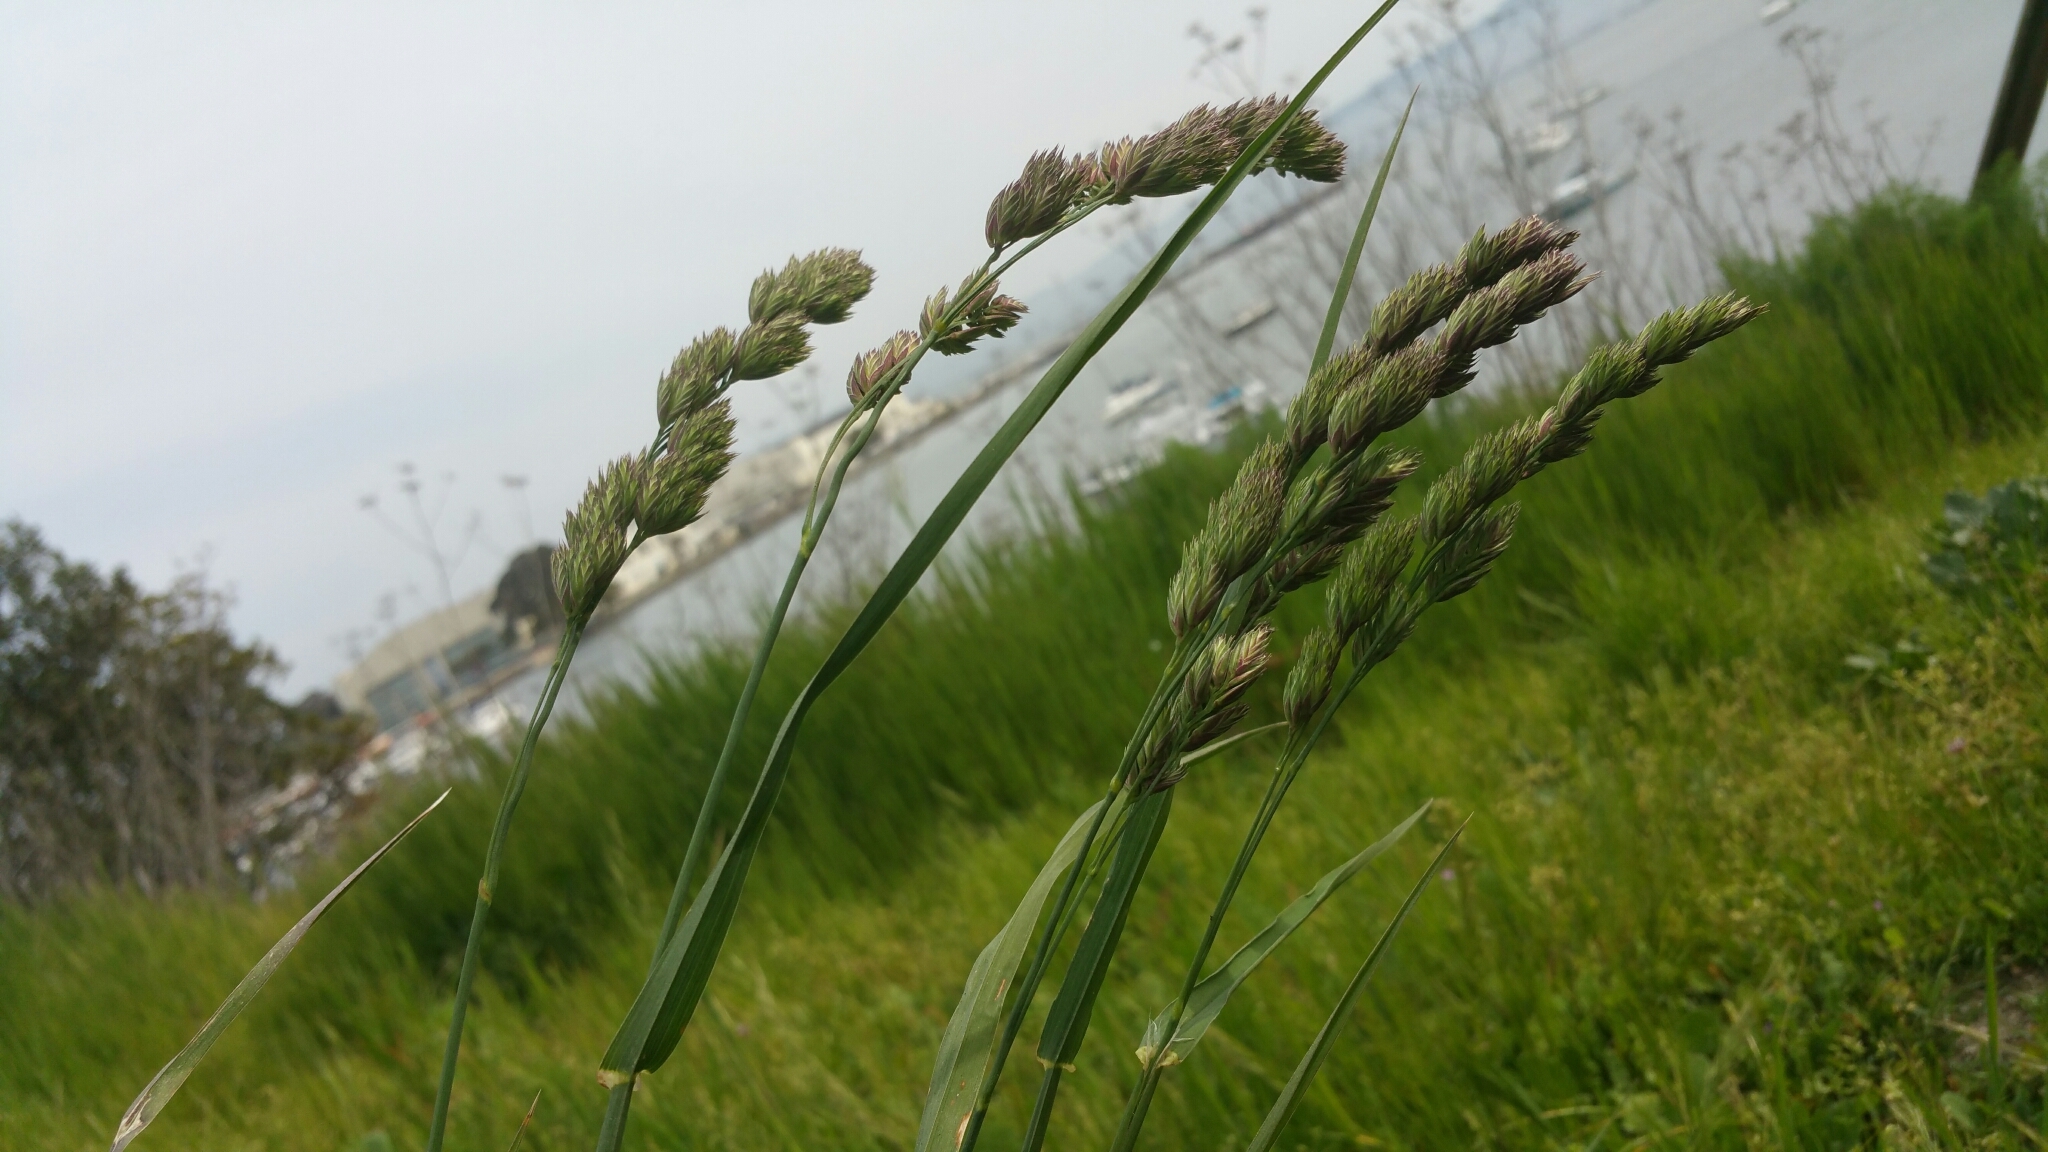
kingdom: Plantae
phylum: Tracheophyta
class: Liliopsida
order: Poales
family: Poaceae
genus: Dactylis
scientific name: Dactylis glomerata
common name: Orchardgrass
